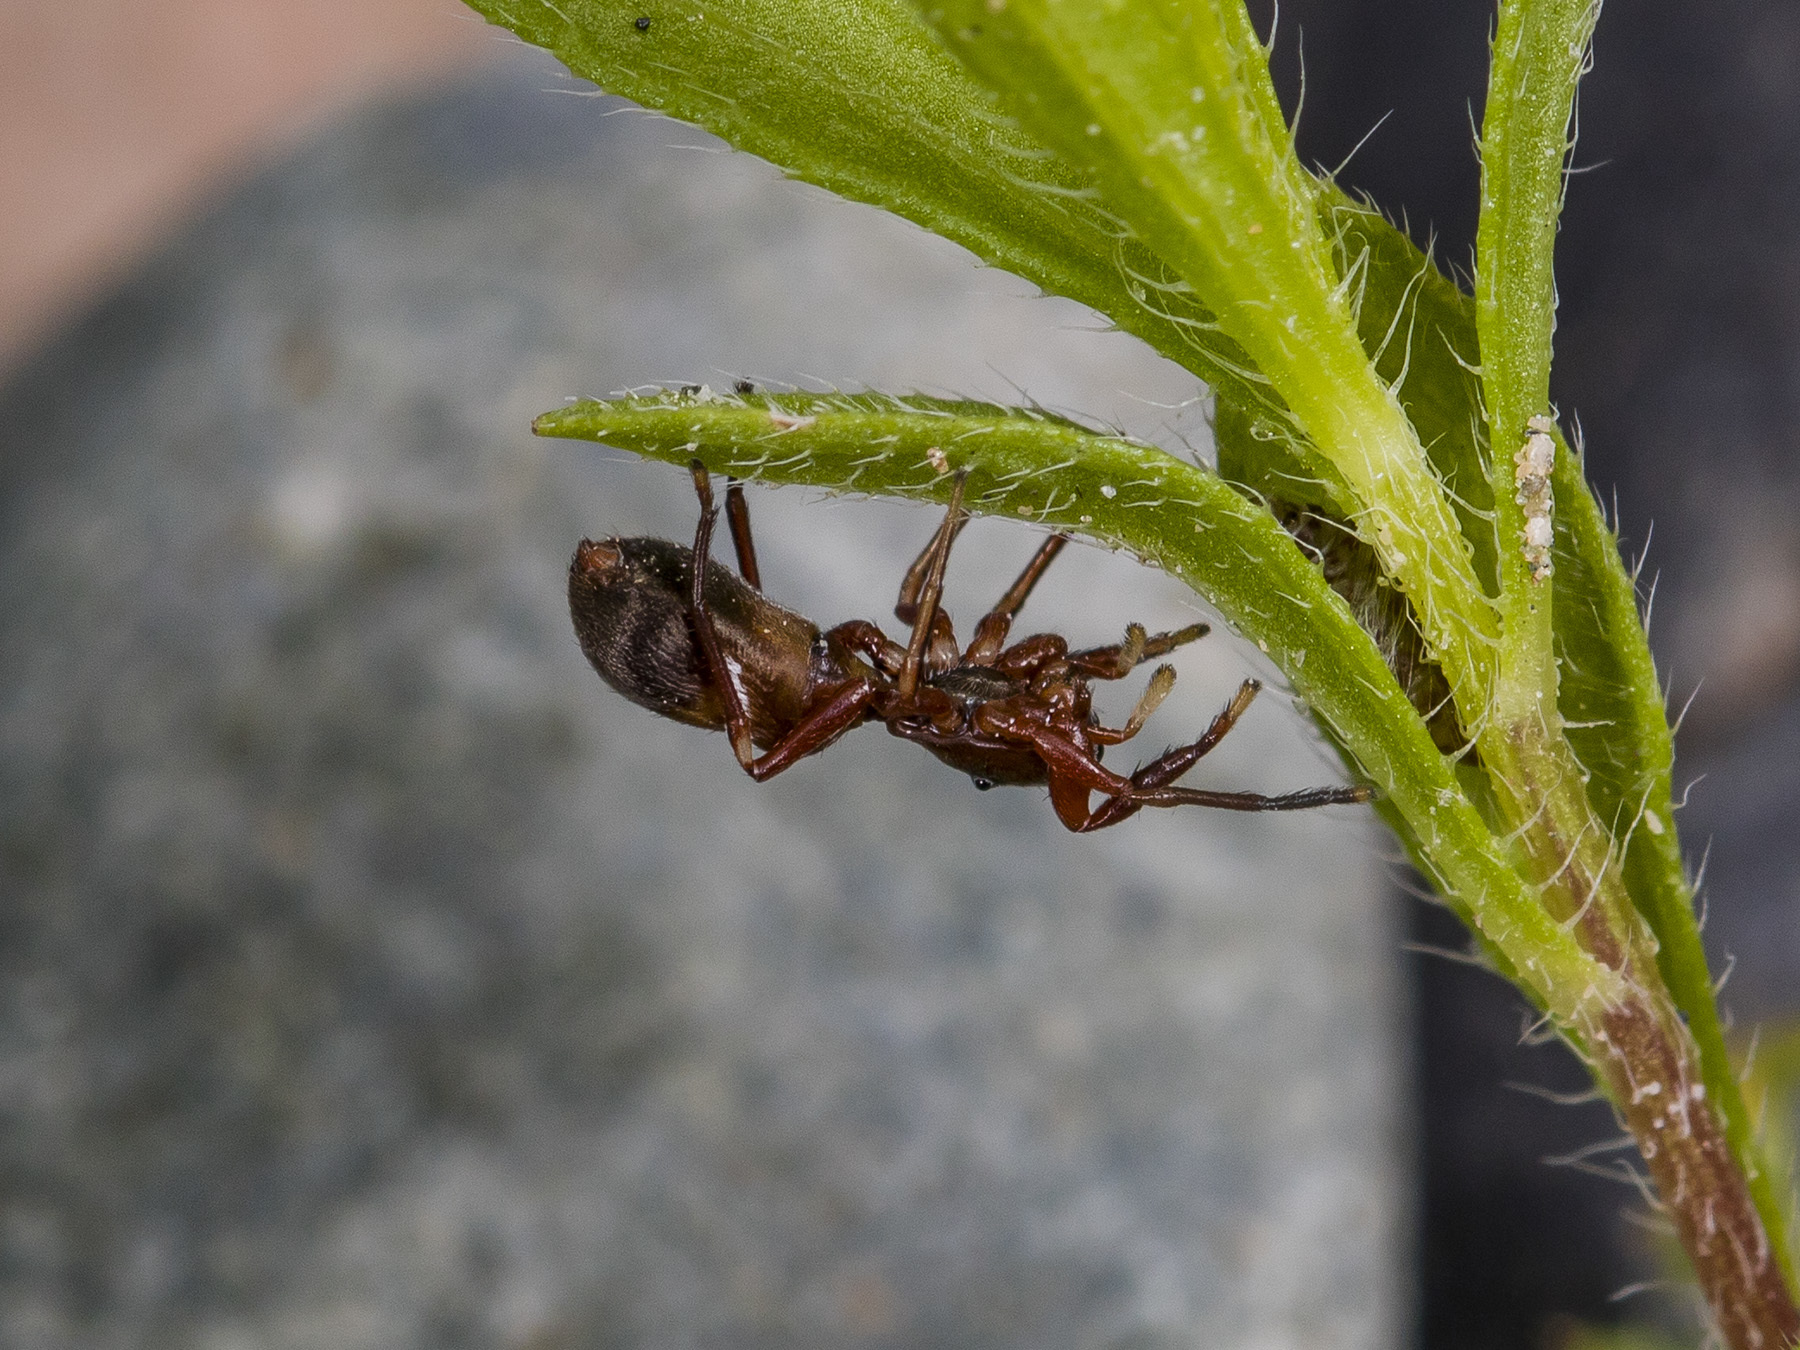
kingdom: Animalia
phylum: Arthropoda
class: Arachnida
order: Araneae
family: Salticidae
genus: Synageles
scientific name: Synageles subcingulatus
